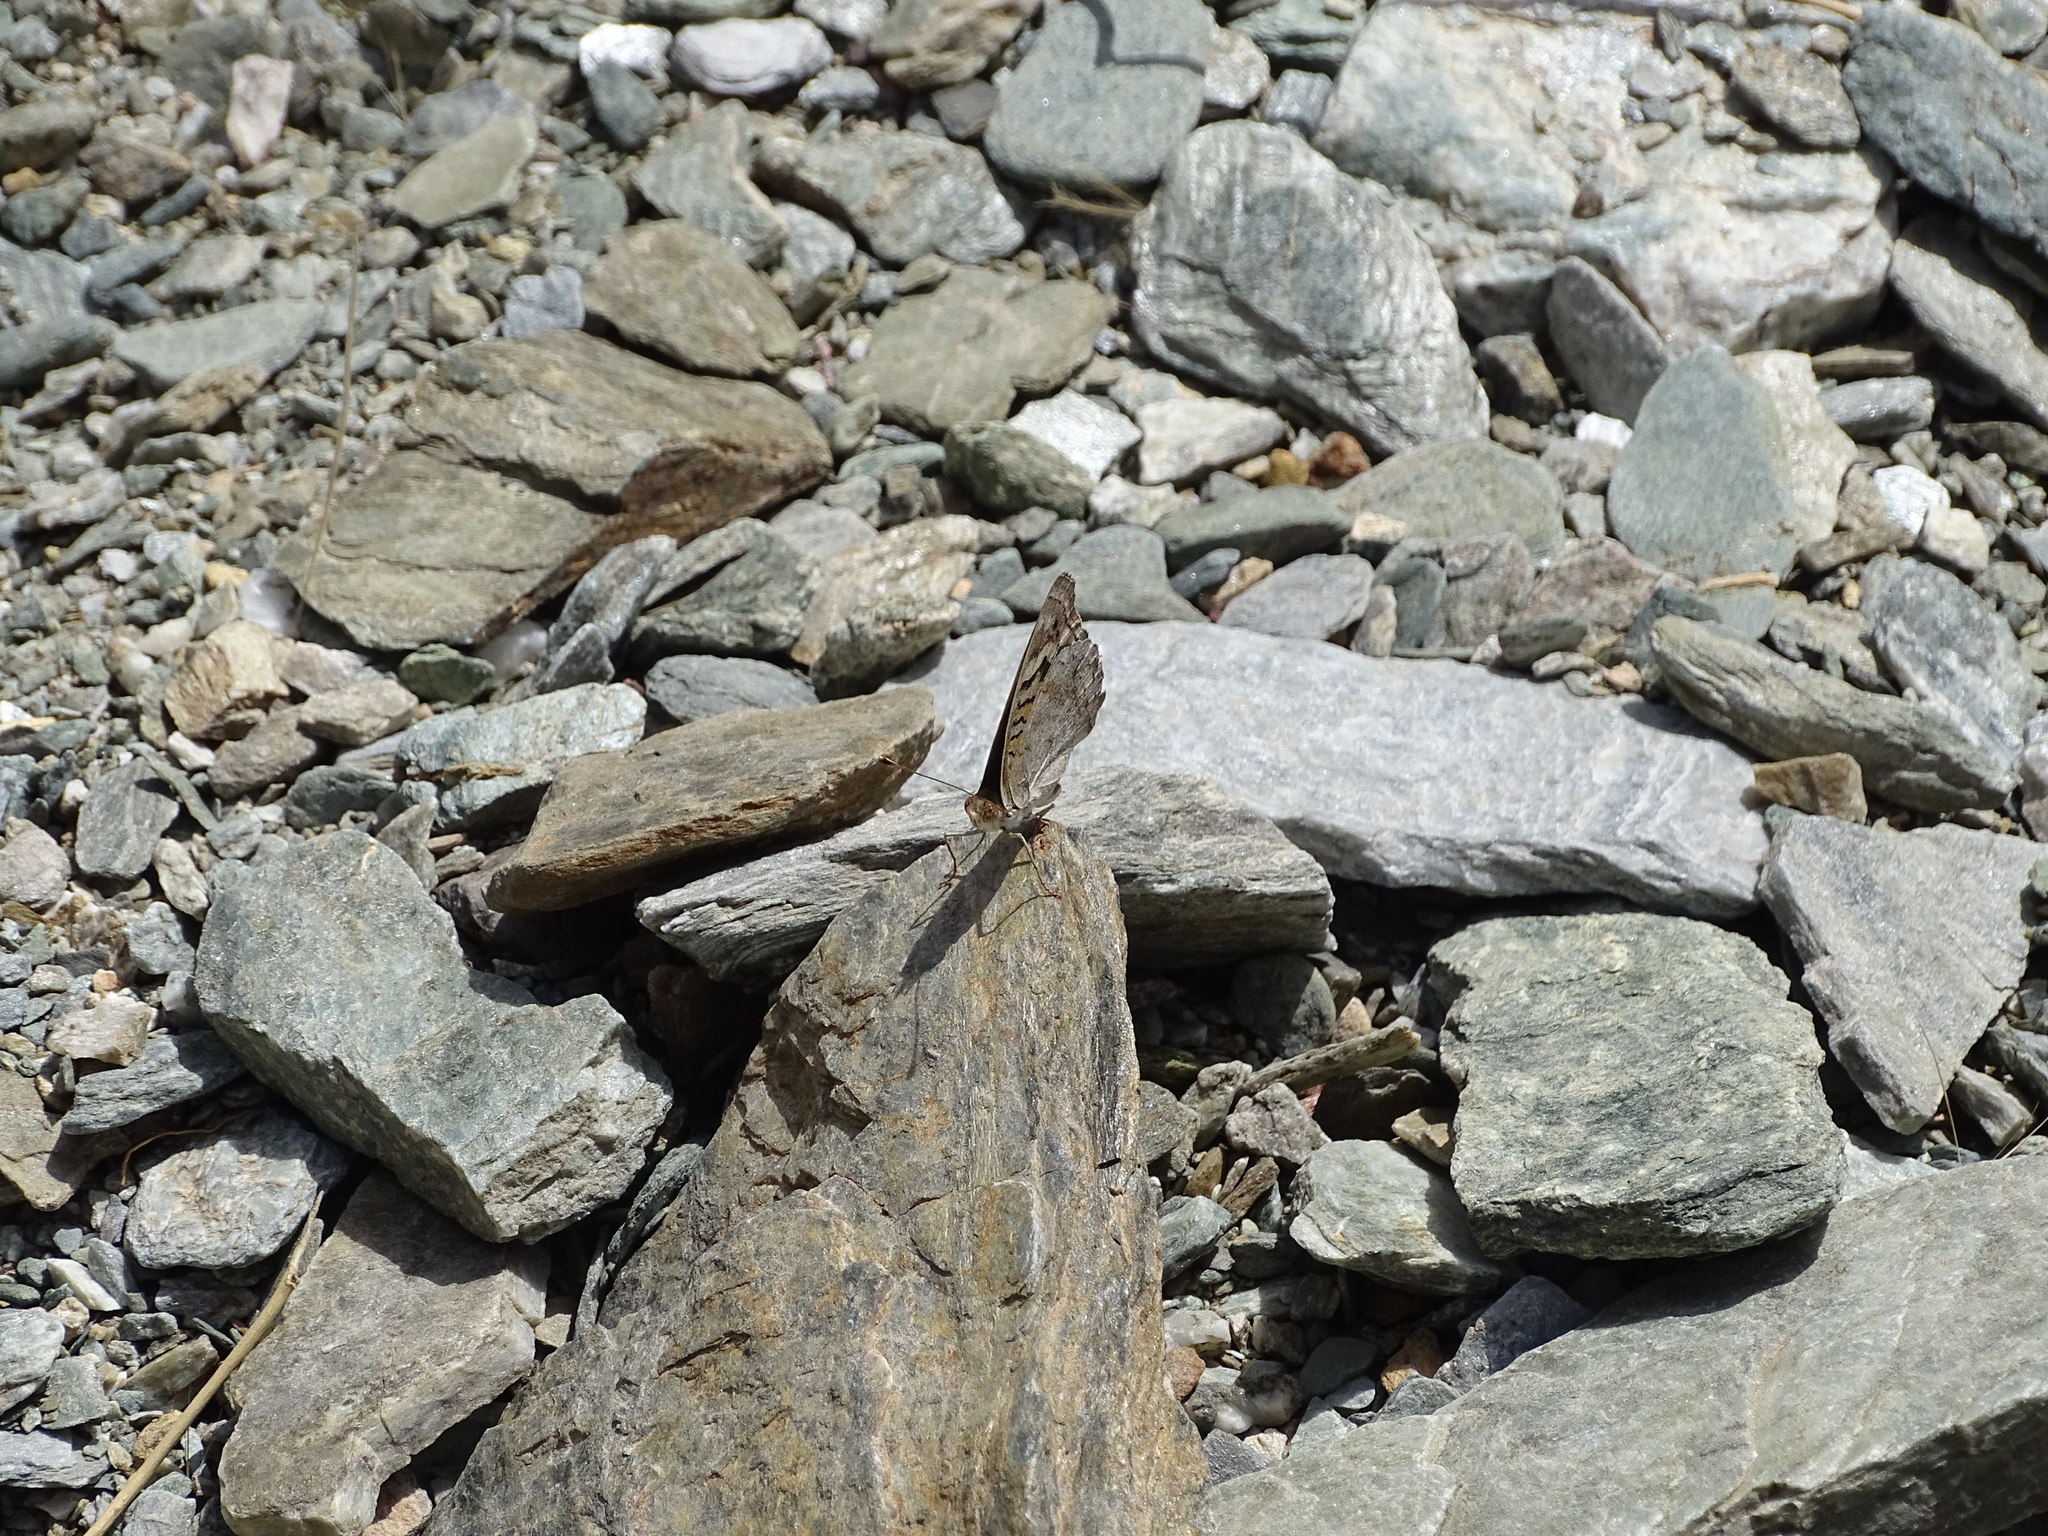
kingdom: Animalia
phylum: Arthropoda
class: Insecta
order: Lepidoptera
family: Nymphalidae
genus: Junonia
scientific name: Junonia orithya
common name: Blue pansy
